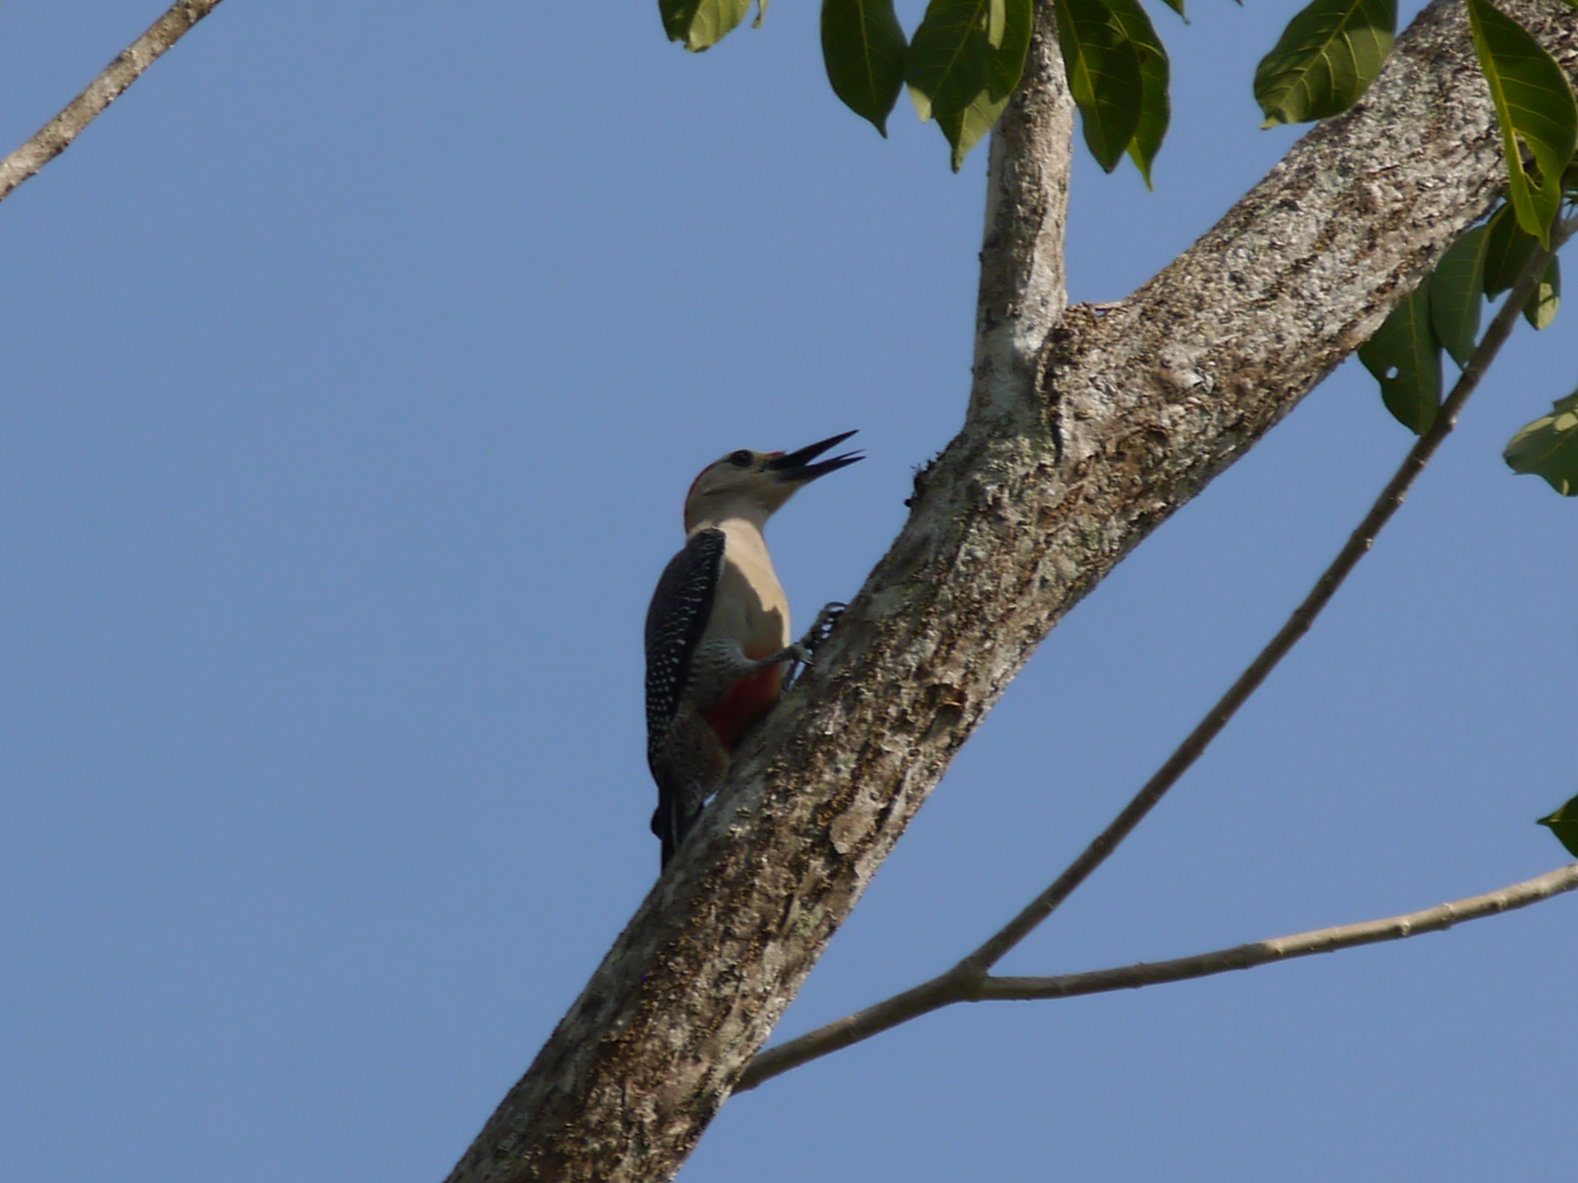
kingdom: Animalia
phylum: Chordata
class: Aves
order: Piciformes
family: Picidae
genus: Melanerpes
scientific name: Melanerpes aurifrons
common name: Golden-fronted woodpecker
